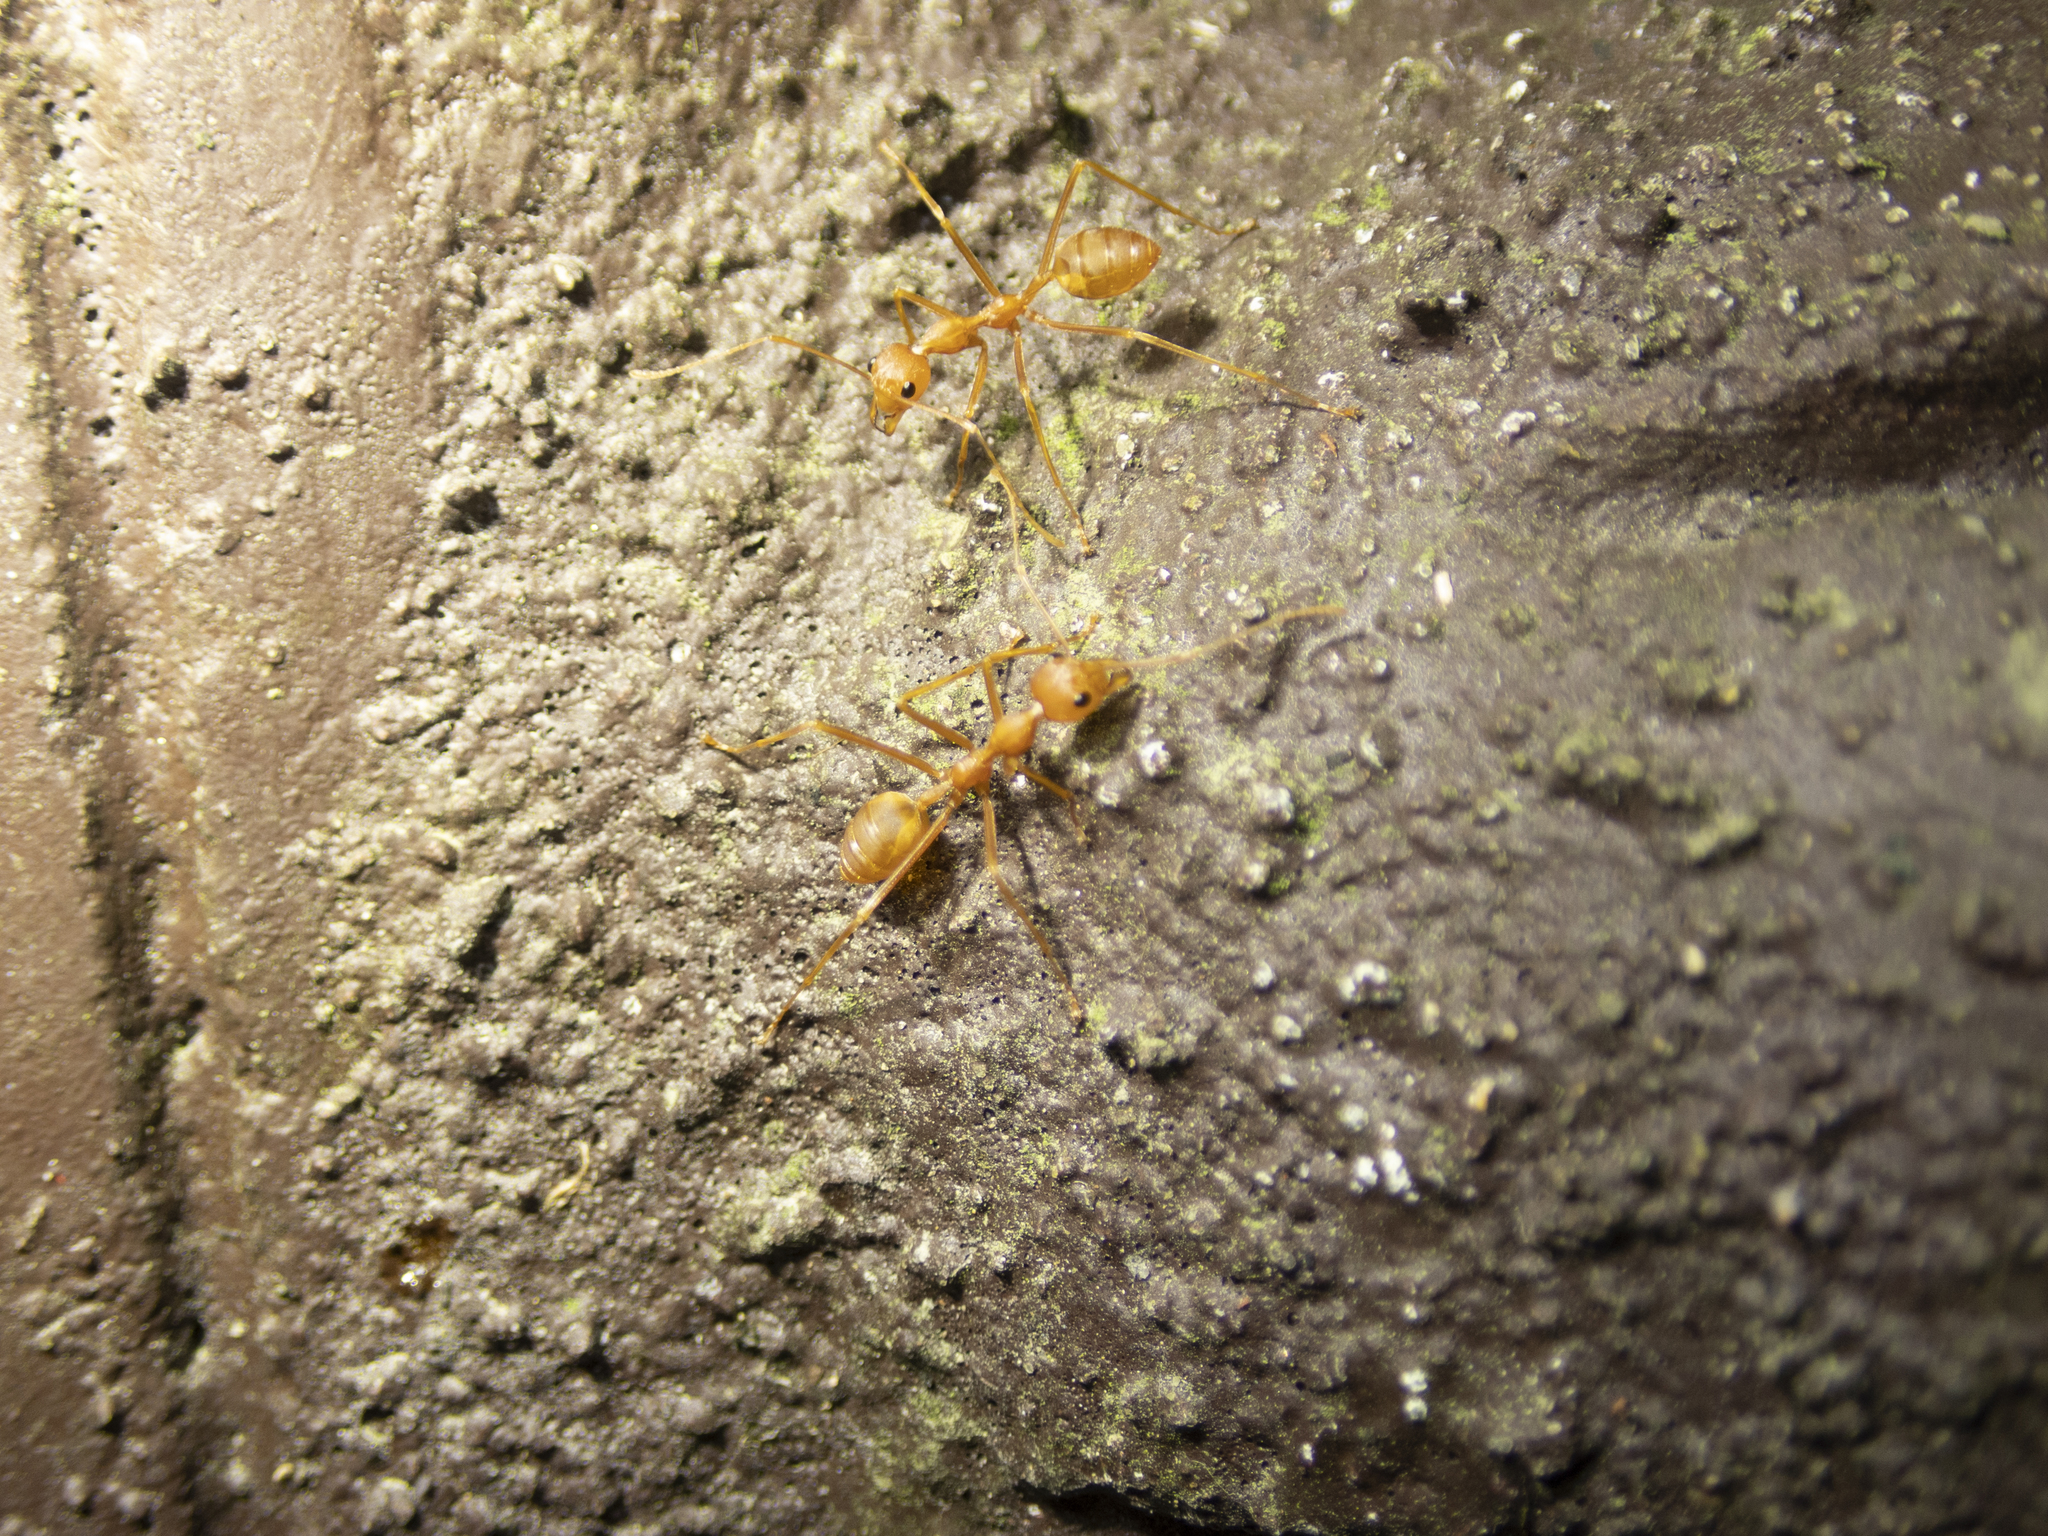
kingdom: Animalia
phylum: Arthropoda
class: Insecta
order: Hymenoptera
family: Formicidae
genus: Oecophylla
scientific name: Oecophylla smaragdina
